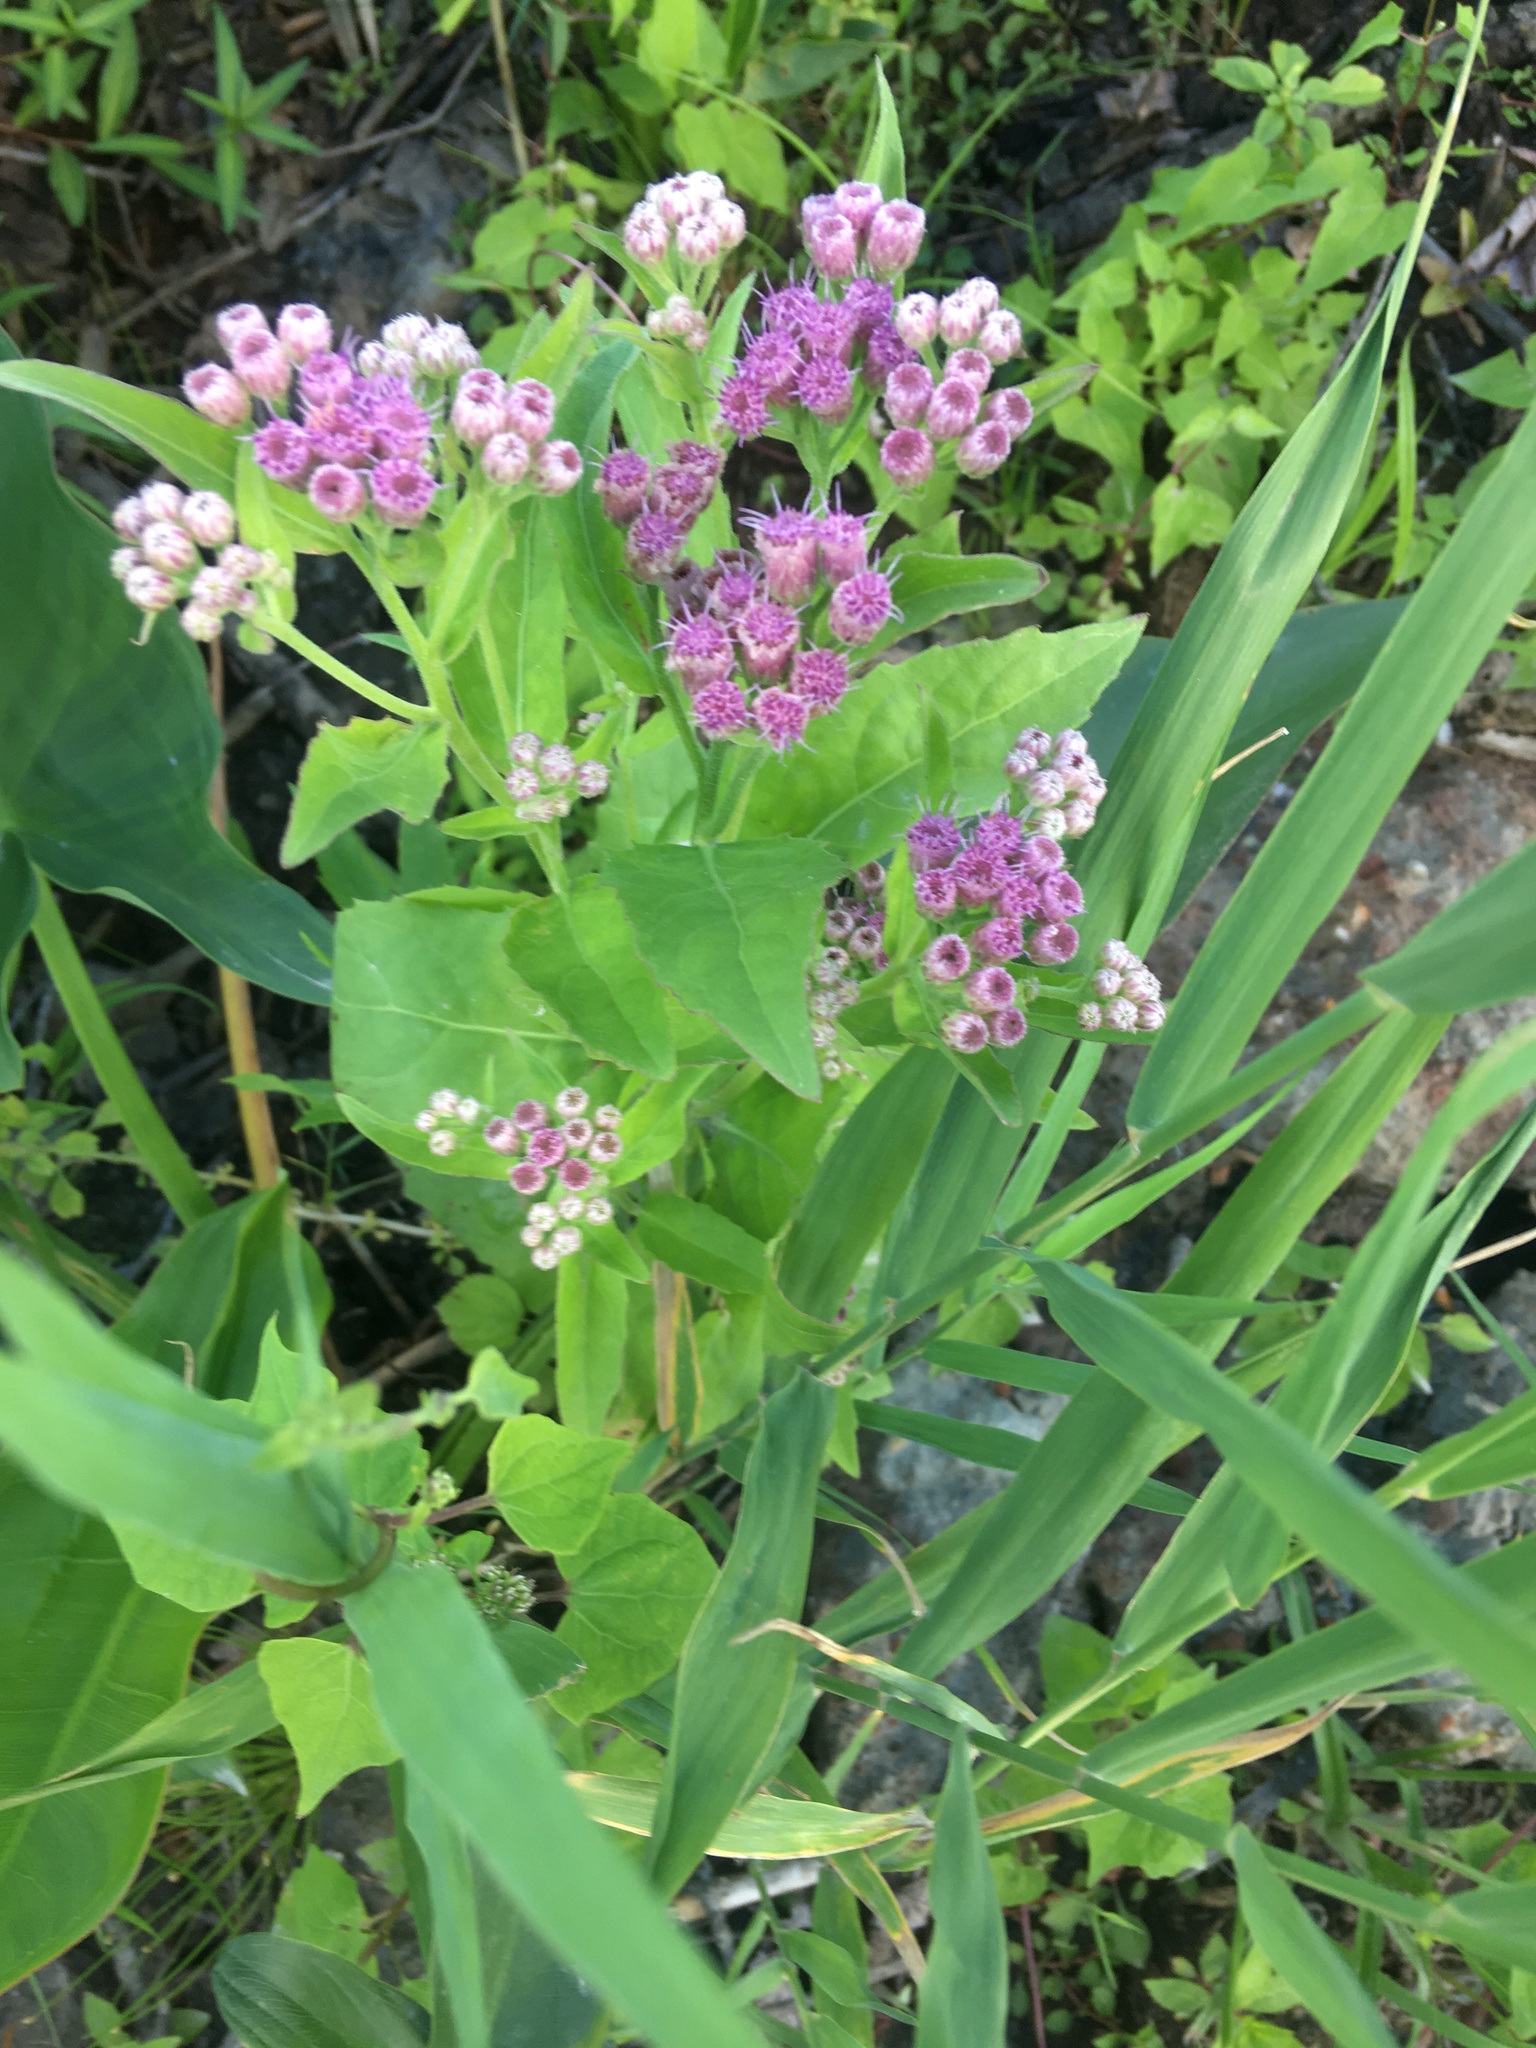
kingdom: Plantae
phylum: Tracheophyta
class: Magnoliopsida
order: Asterales
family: Asteraceae
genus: Pluchea
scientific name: Pluchea odorata
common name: Saltmarsh fleabane
